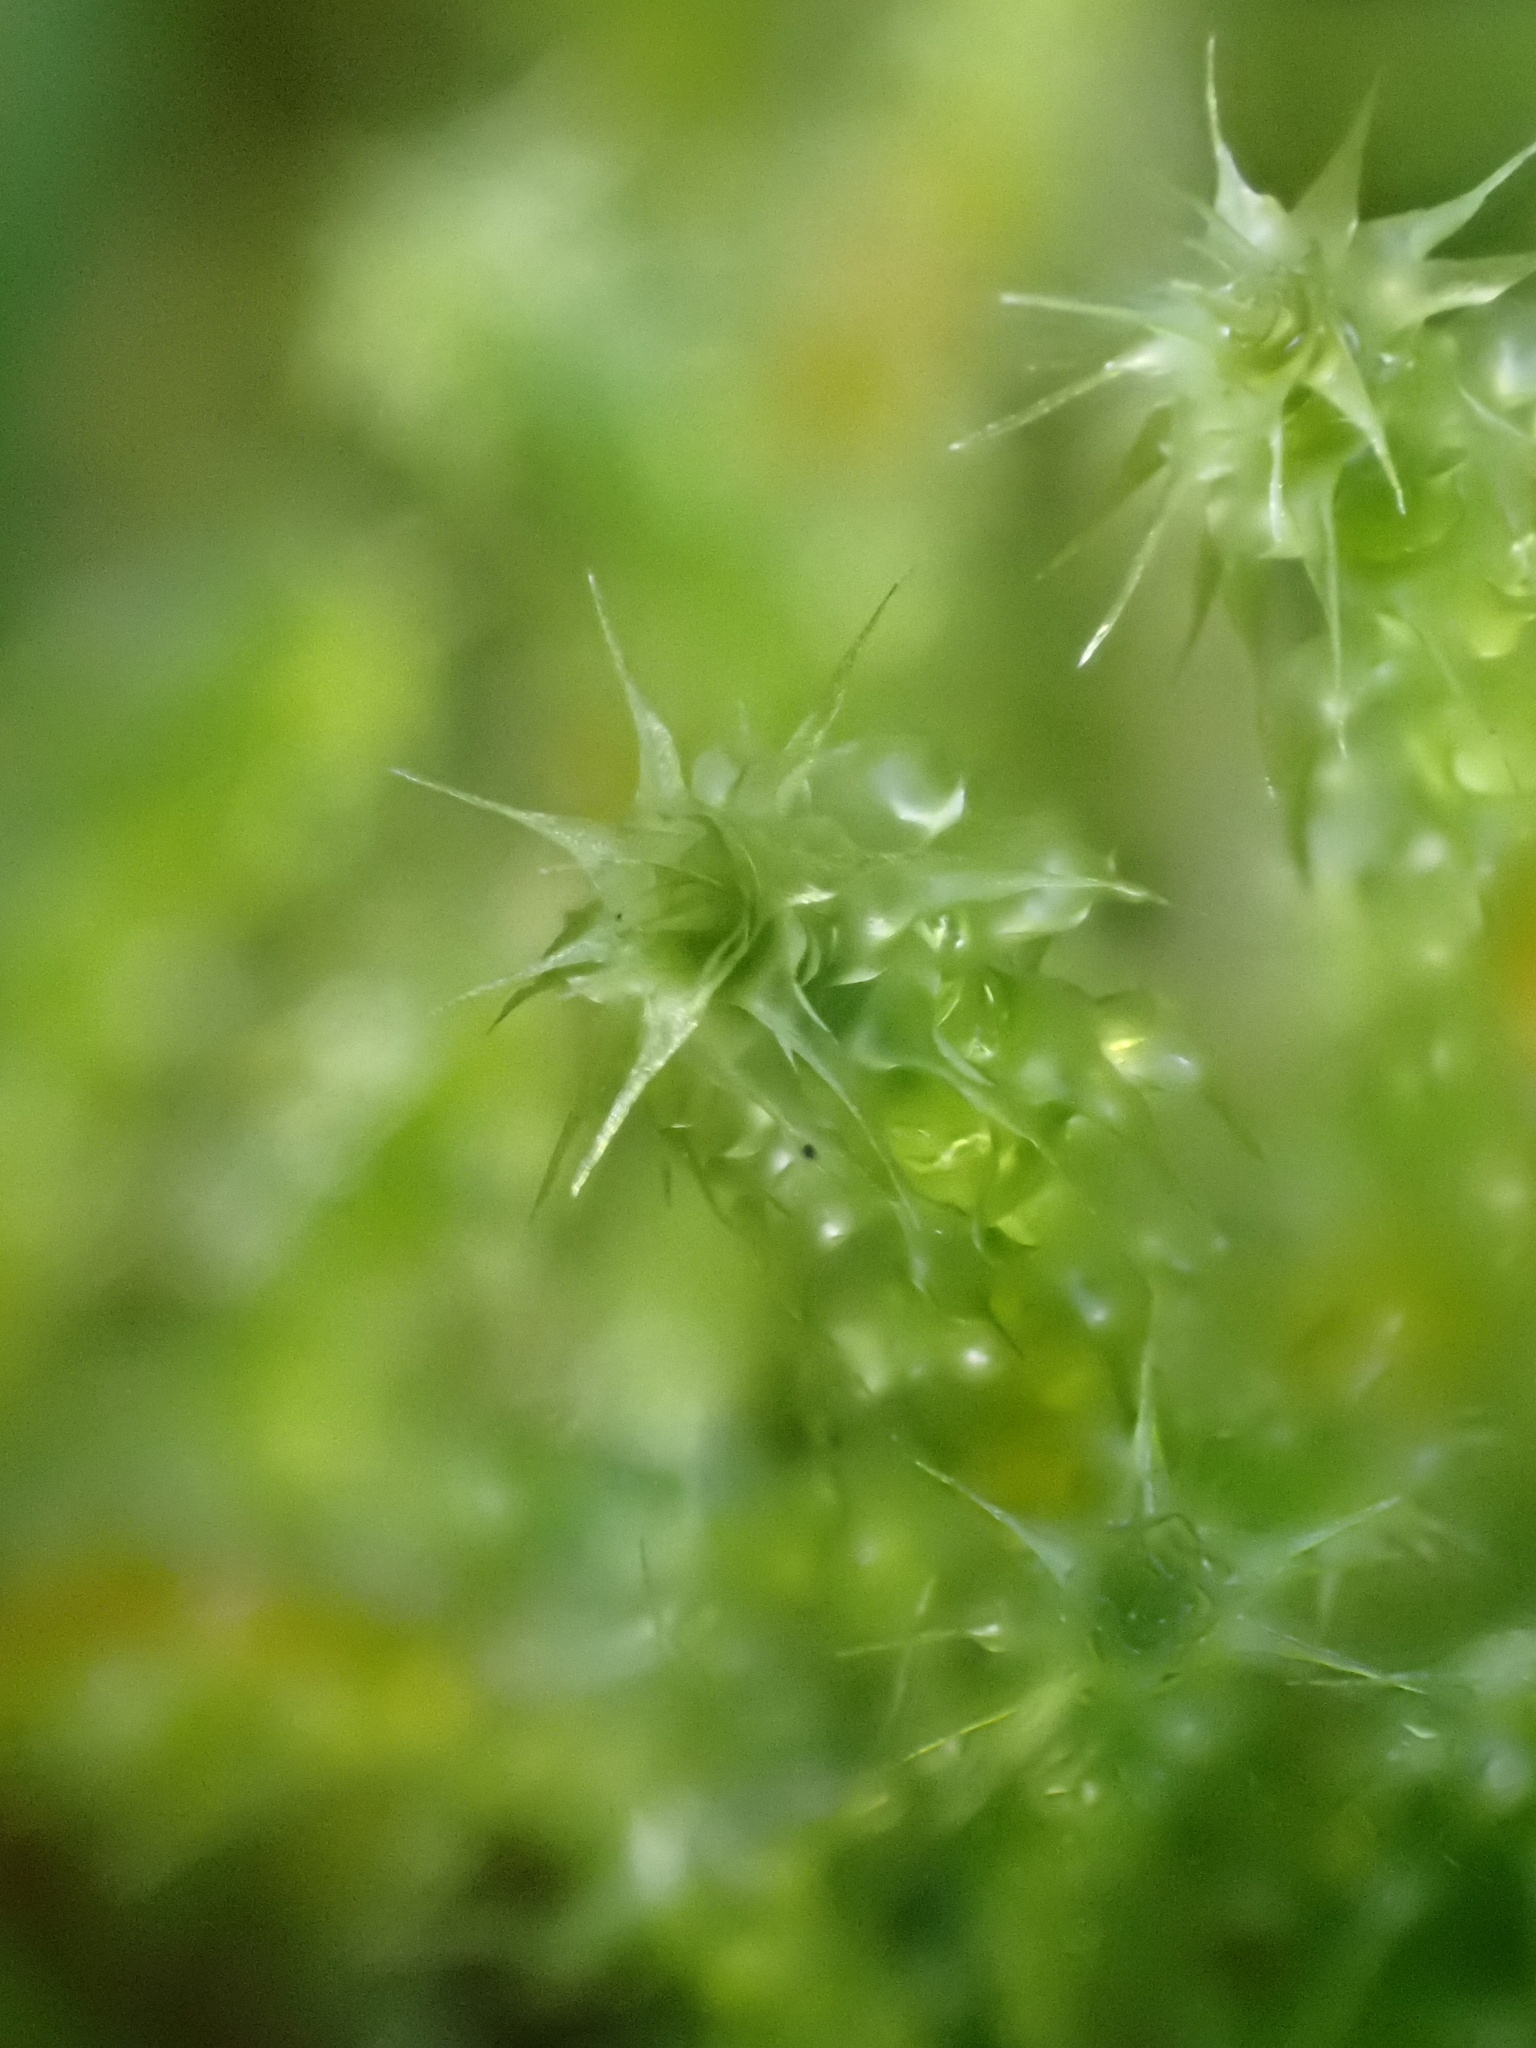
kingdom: Plantae
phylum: Bryophyta
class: Bryopsida
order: Hypnales
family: Hylocomiaceae
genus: Rhytidiadelphus
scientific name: Rhytidiadelphus squarrosus
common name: Springy turf-moss
